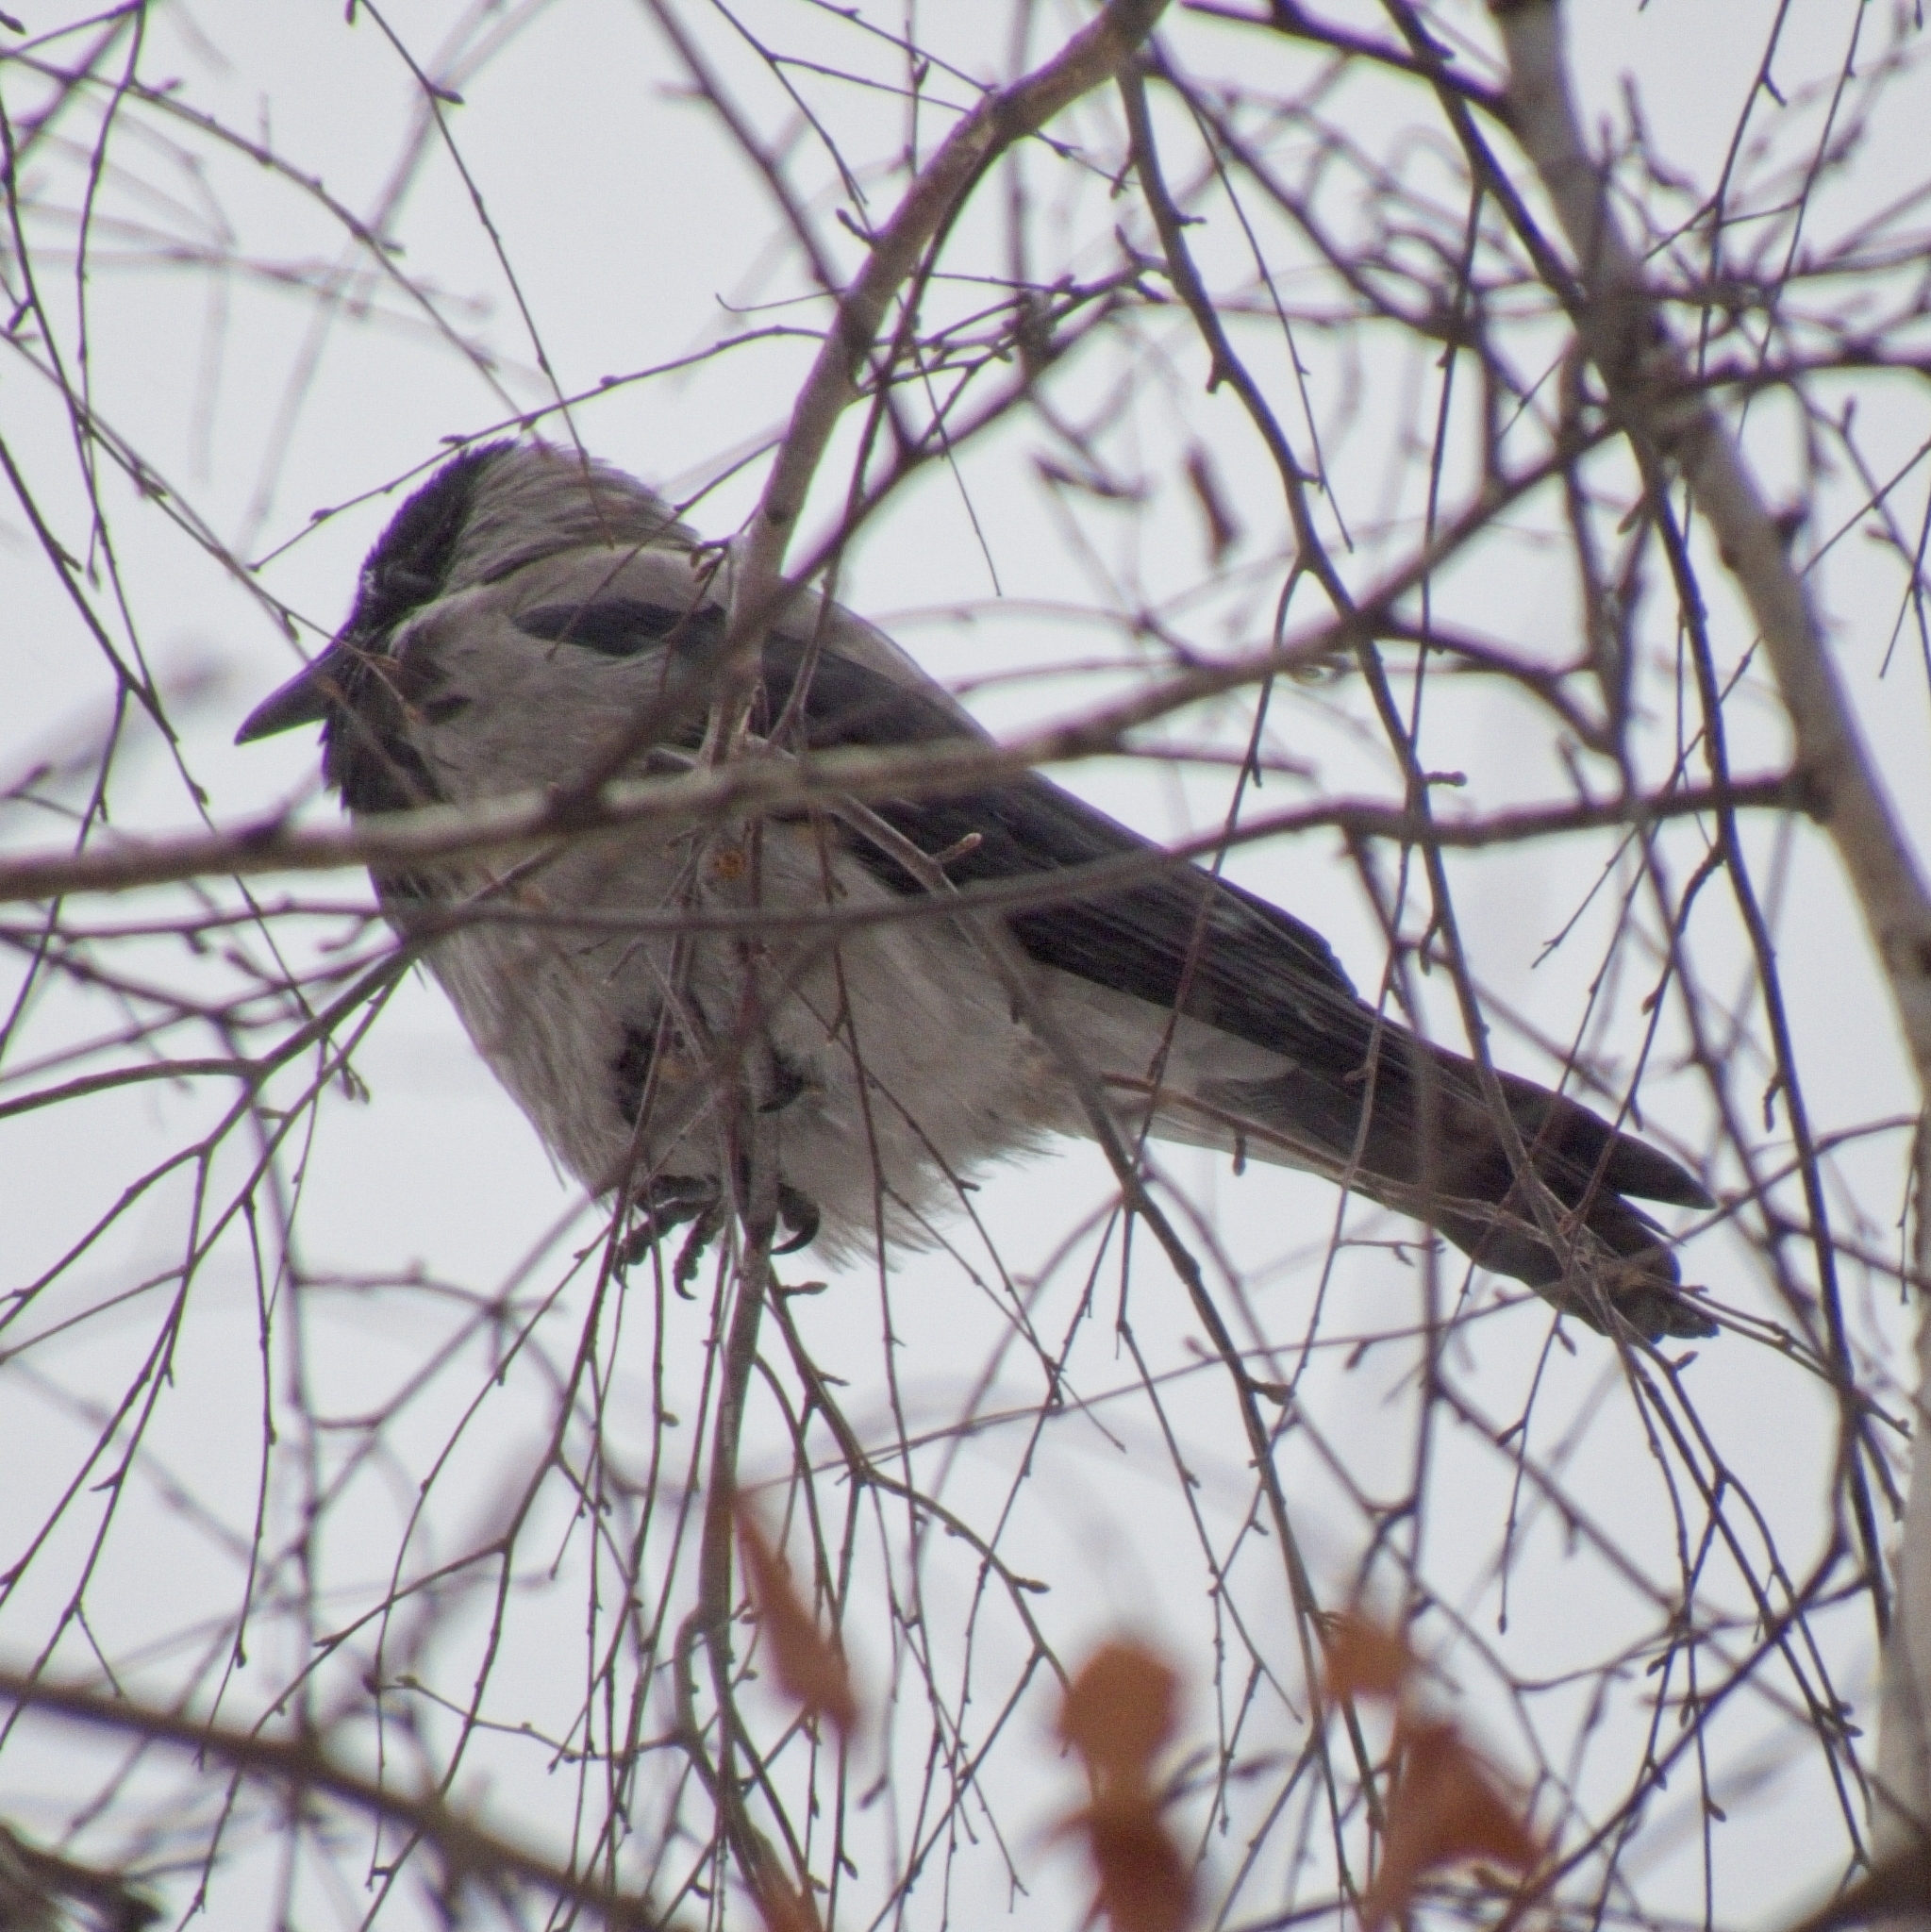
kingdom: Animalia
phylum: Chordata
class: Aves
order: Passeriformes
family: Corvidae
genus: Corvus
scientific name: Corvus cornix
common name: Hooded crow
